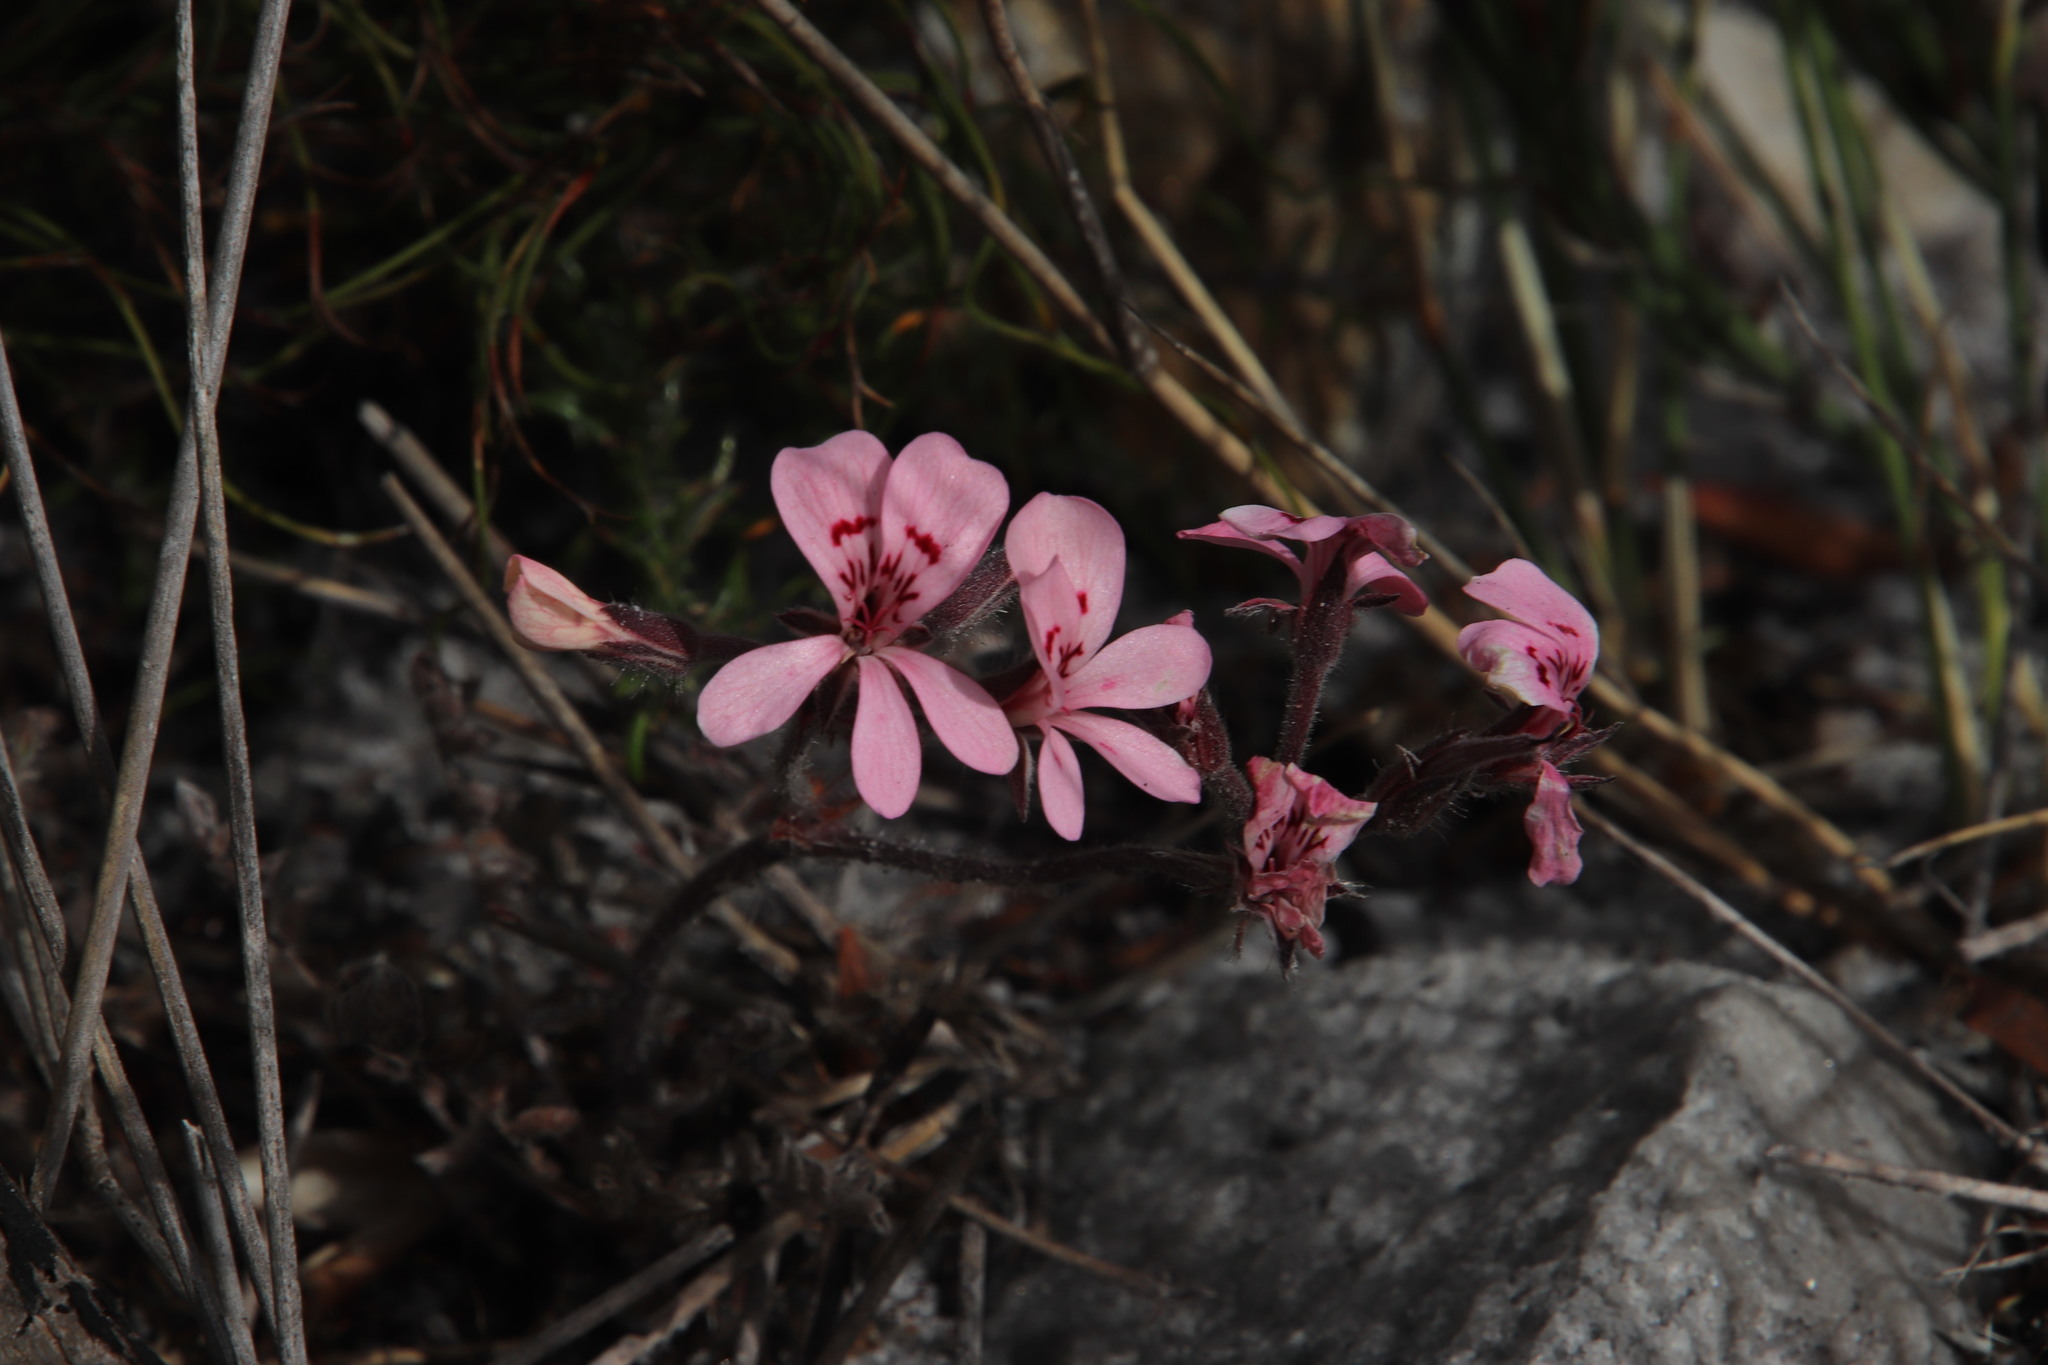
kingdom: Plantae
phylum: Tracheophyta
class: Magnoliopsida
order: Geraniales
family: Geraniaceae
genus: Pelargonium
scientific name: Pelargonium pinnatum
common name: Pinnated pelargonium
